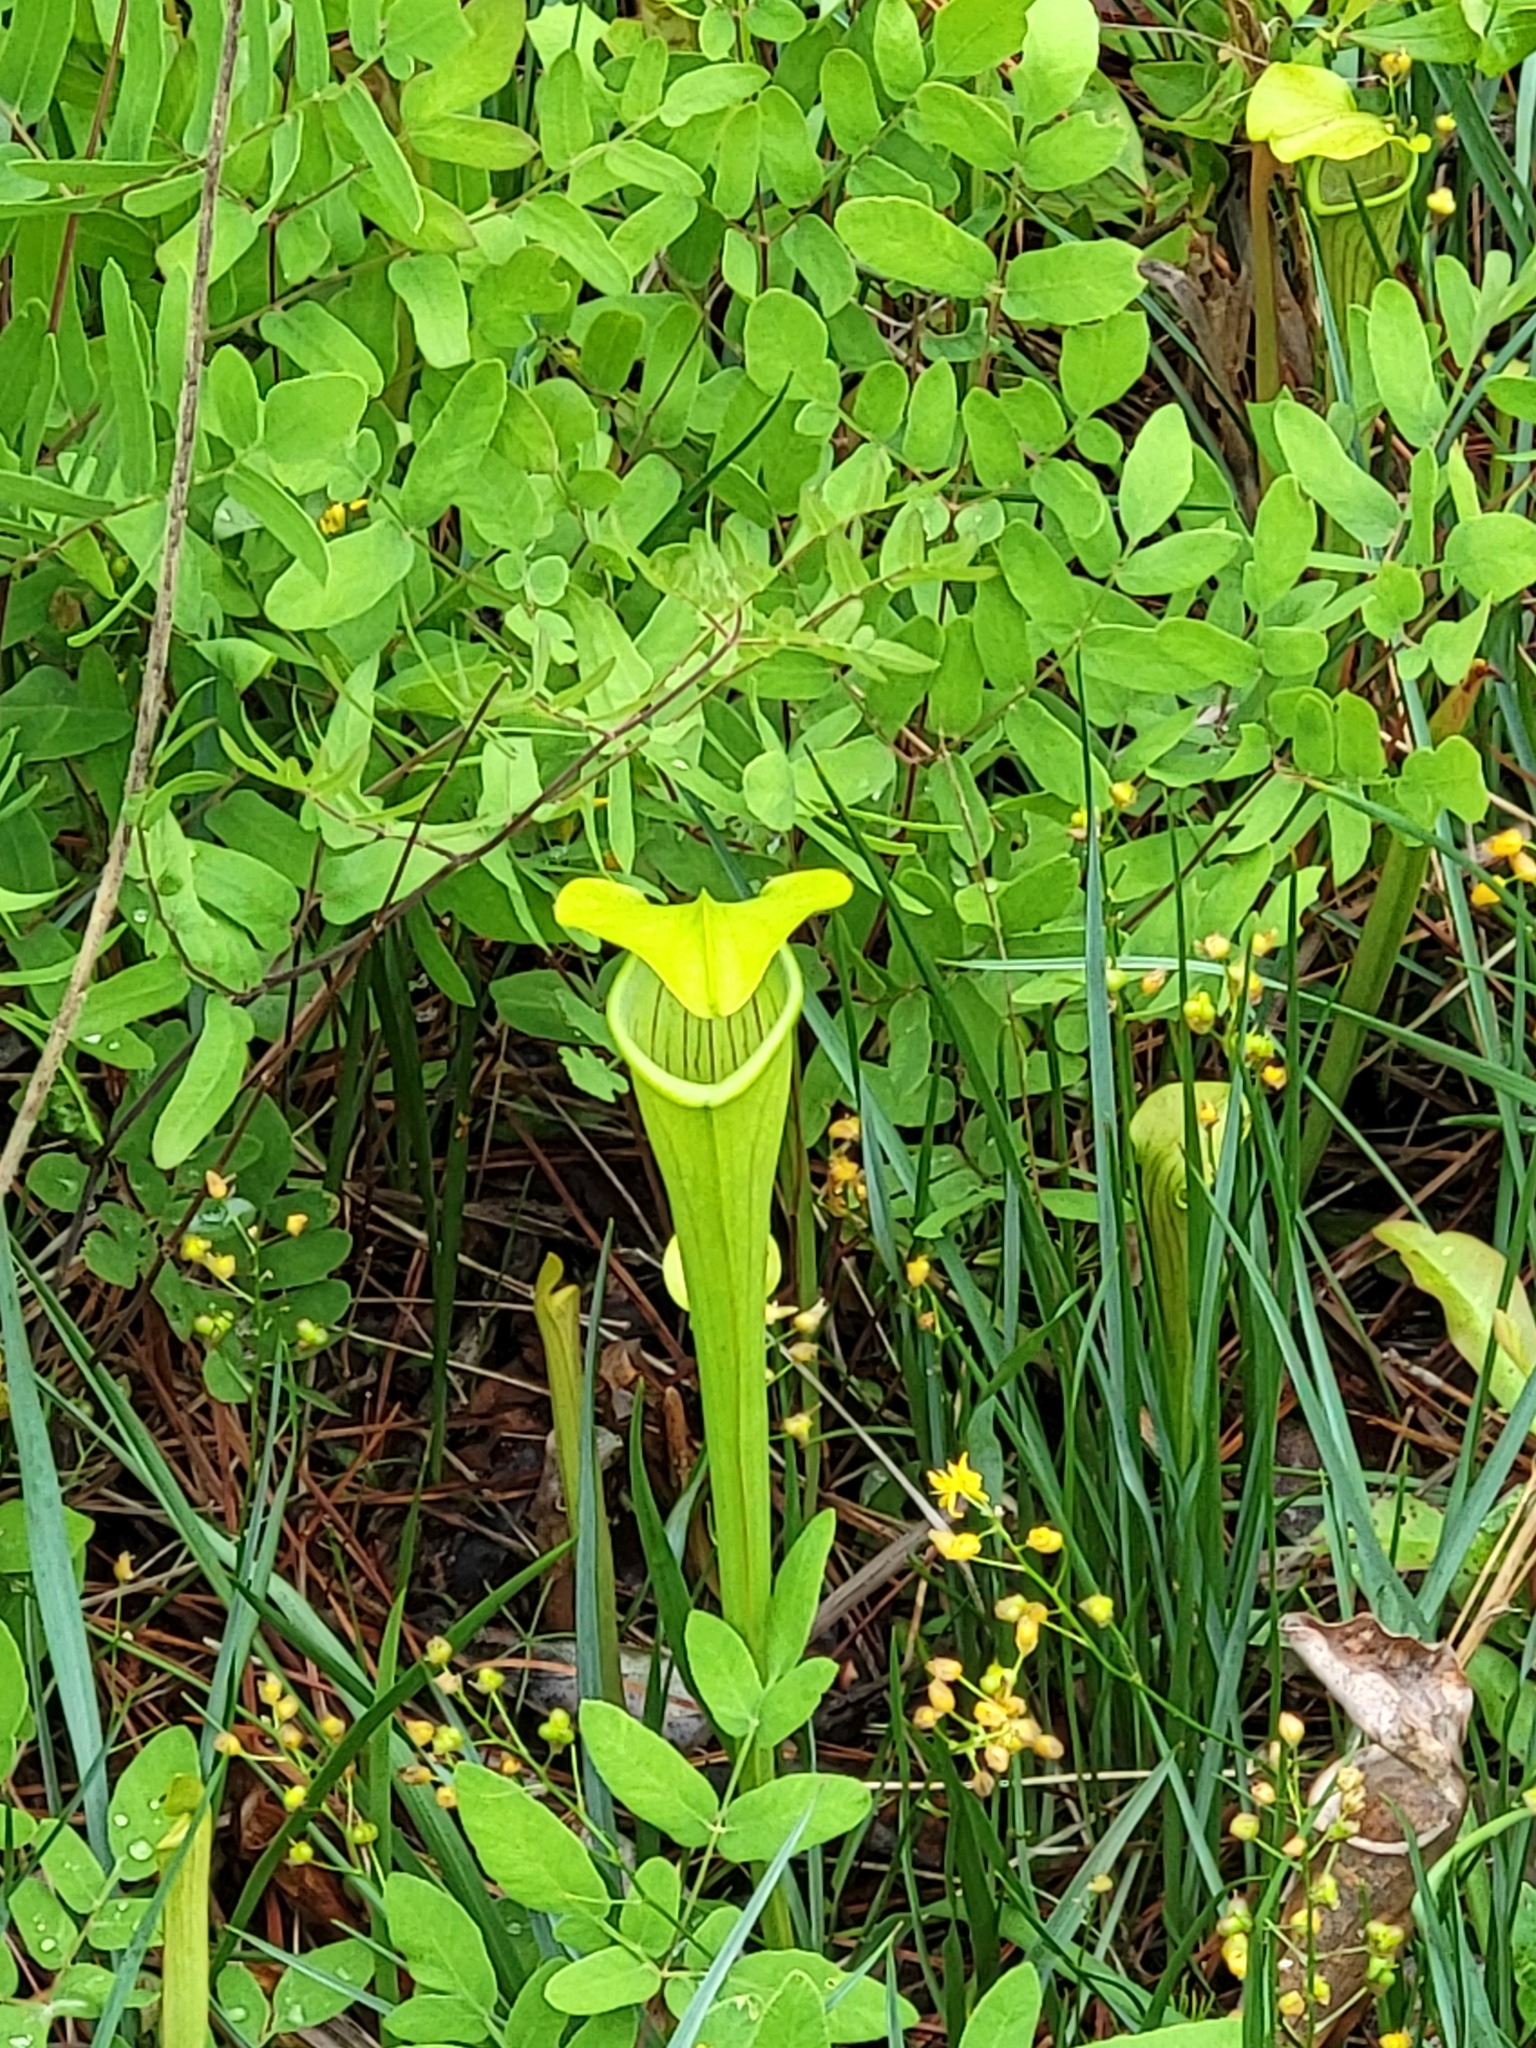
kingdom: Plantae
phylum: Tracheophyta
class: Magnoliopsida
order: Ericales
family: Sarraceniaceae
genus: Sarracenia
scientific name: Sarracenia alata
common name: Yellow trumpets
